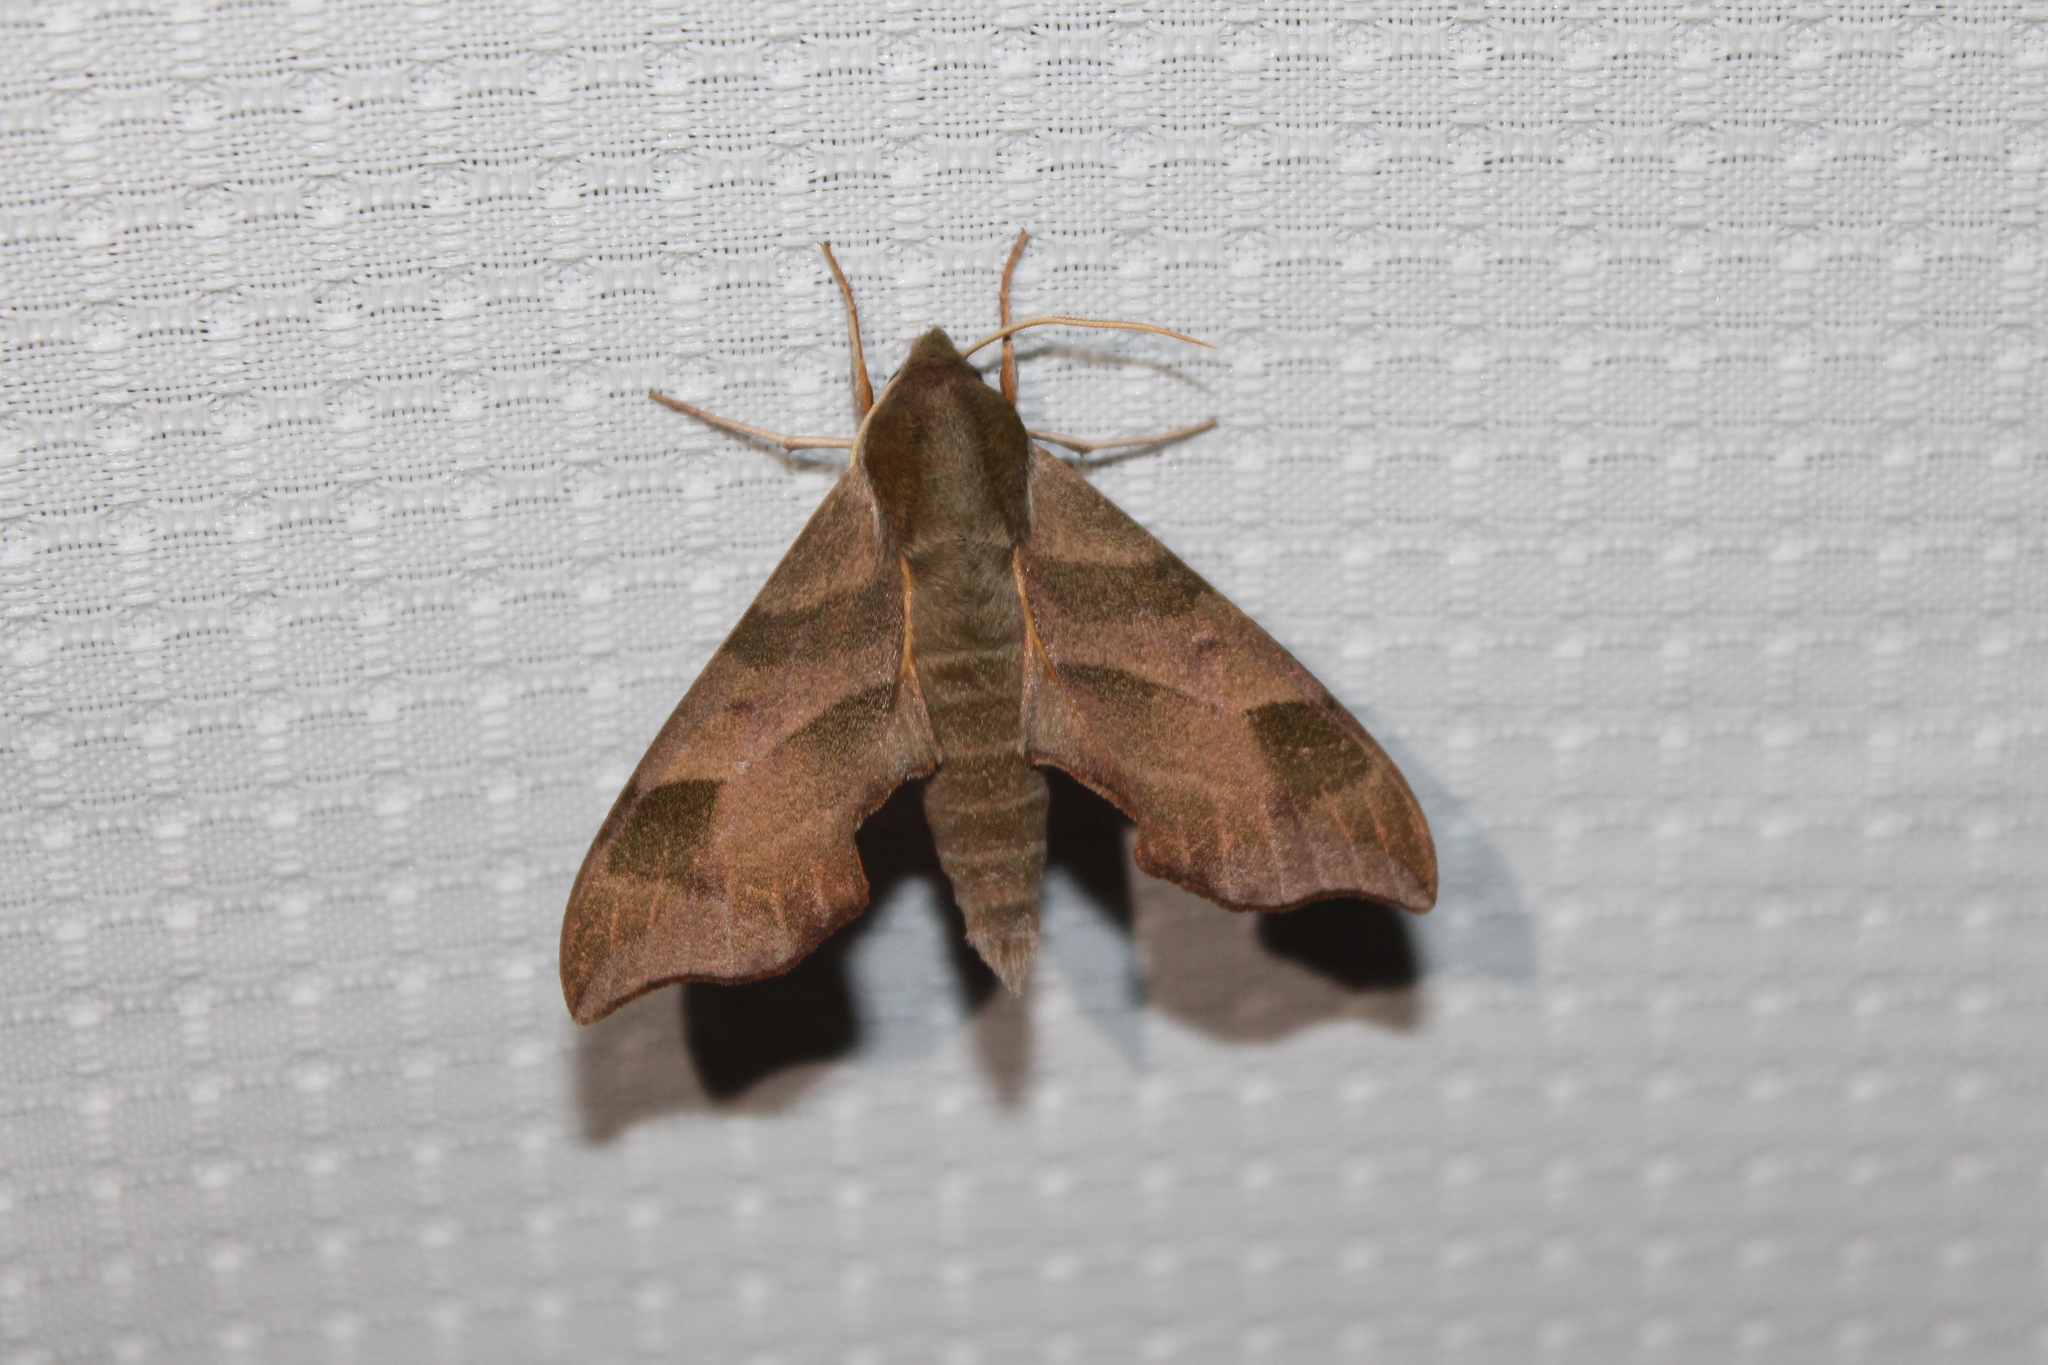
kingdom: Animalia
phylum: Arthropoda
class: Insecta
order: Lepidoptera
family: Sphingidae
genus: Darapsa
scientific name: Darapsa myron
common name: Hog sphinx
